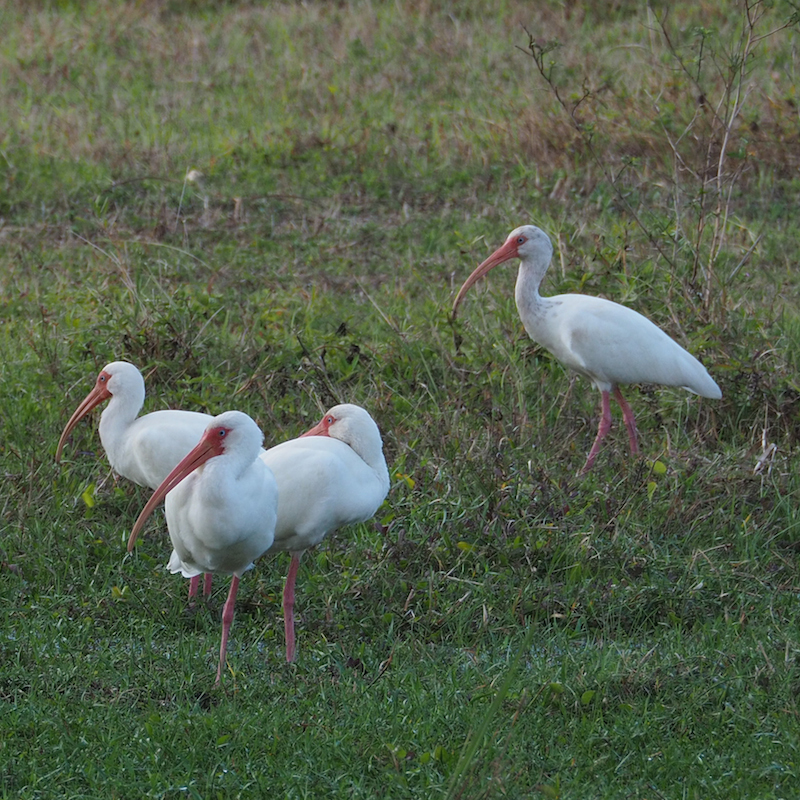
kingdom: Animalia
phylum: Chordata
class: Aves
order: Pelecaniformes
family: Threskiornithidae
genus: Eudocimus
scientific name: Eudocimus albus
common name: White ibis
